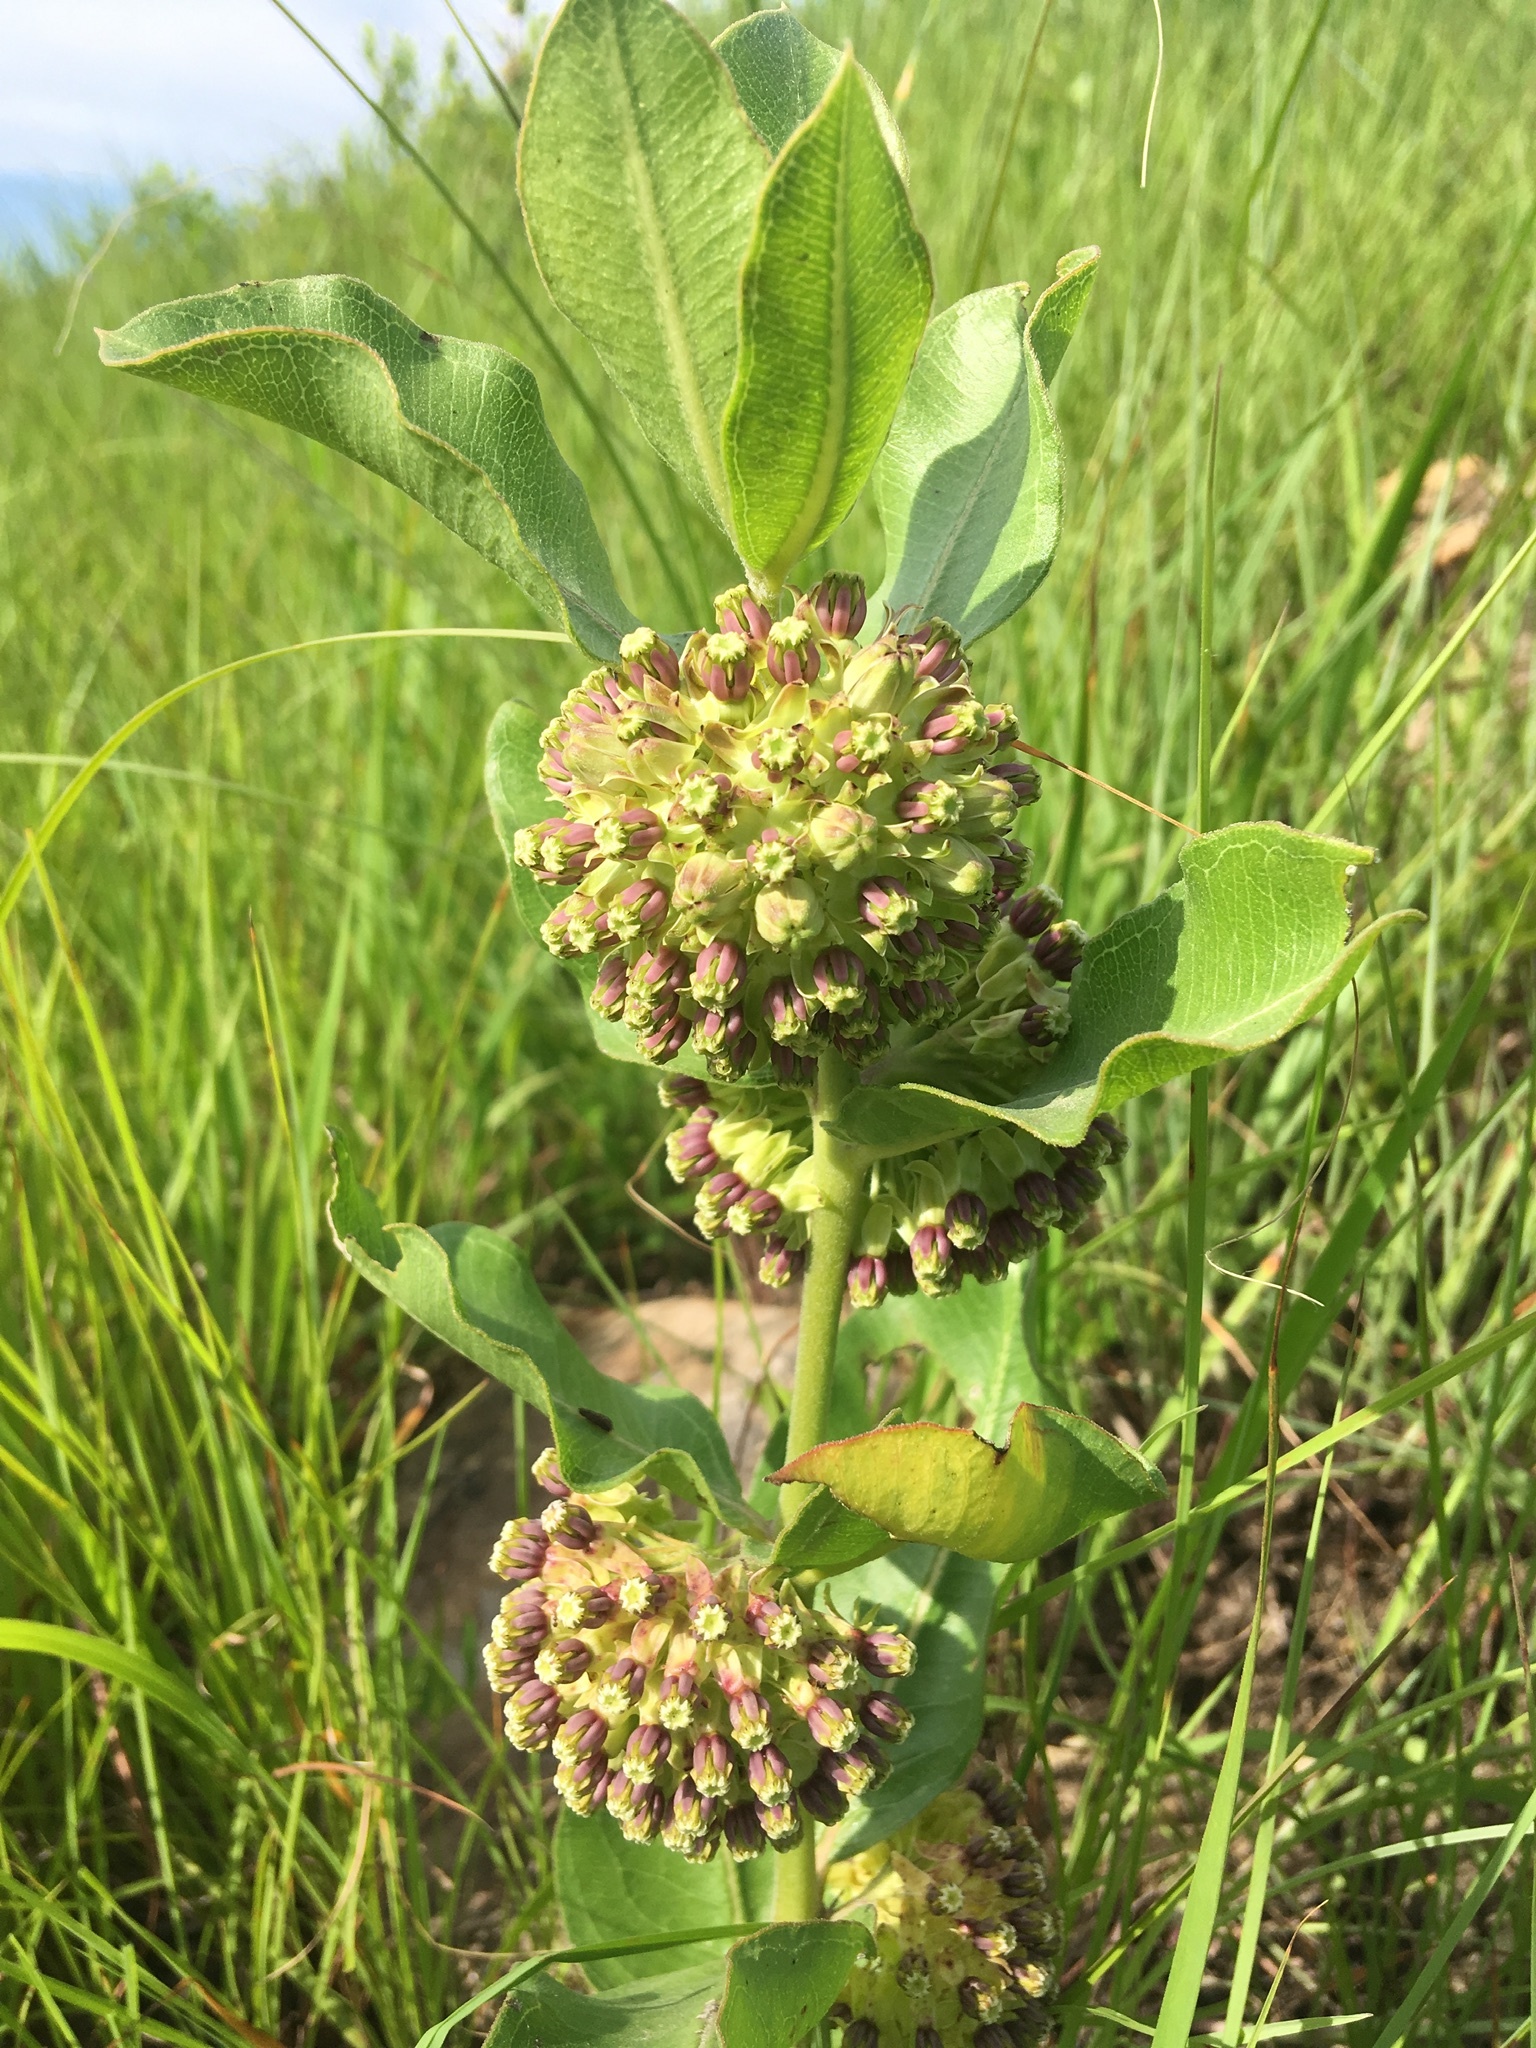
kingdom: Plantae
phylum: Tracheophyta
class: Magnoliopsida
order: Gentianales
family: Apocynaceae
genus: Asclepias
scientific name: Asclepias viridiflora
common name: Green comet milkweed
